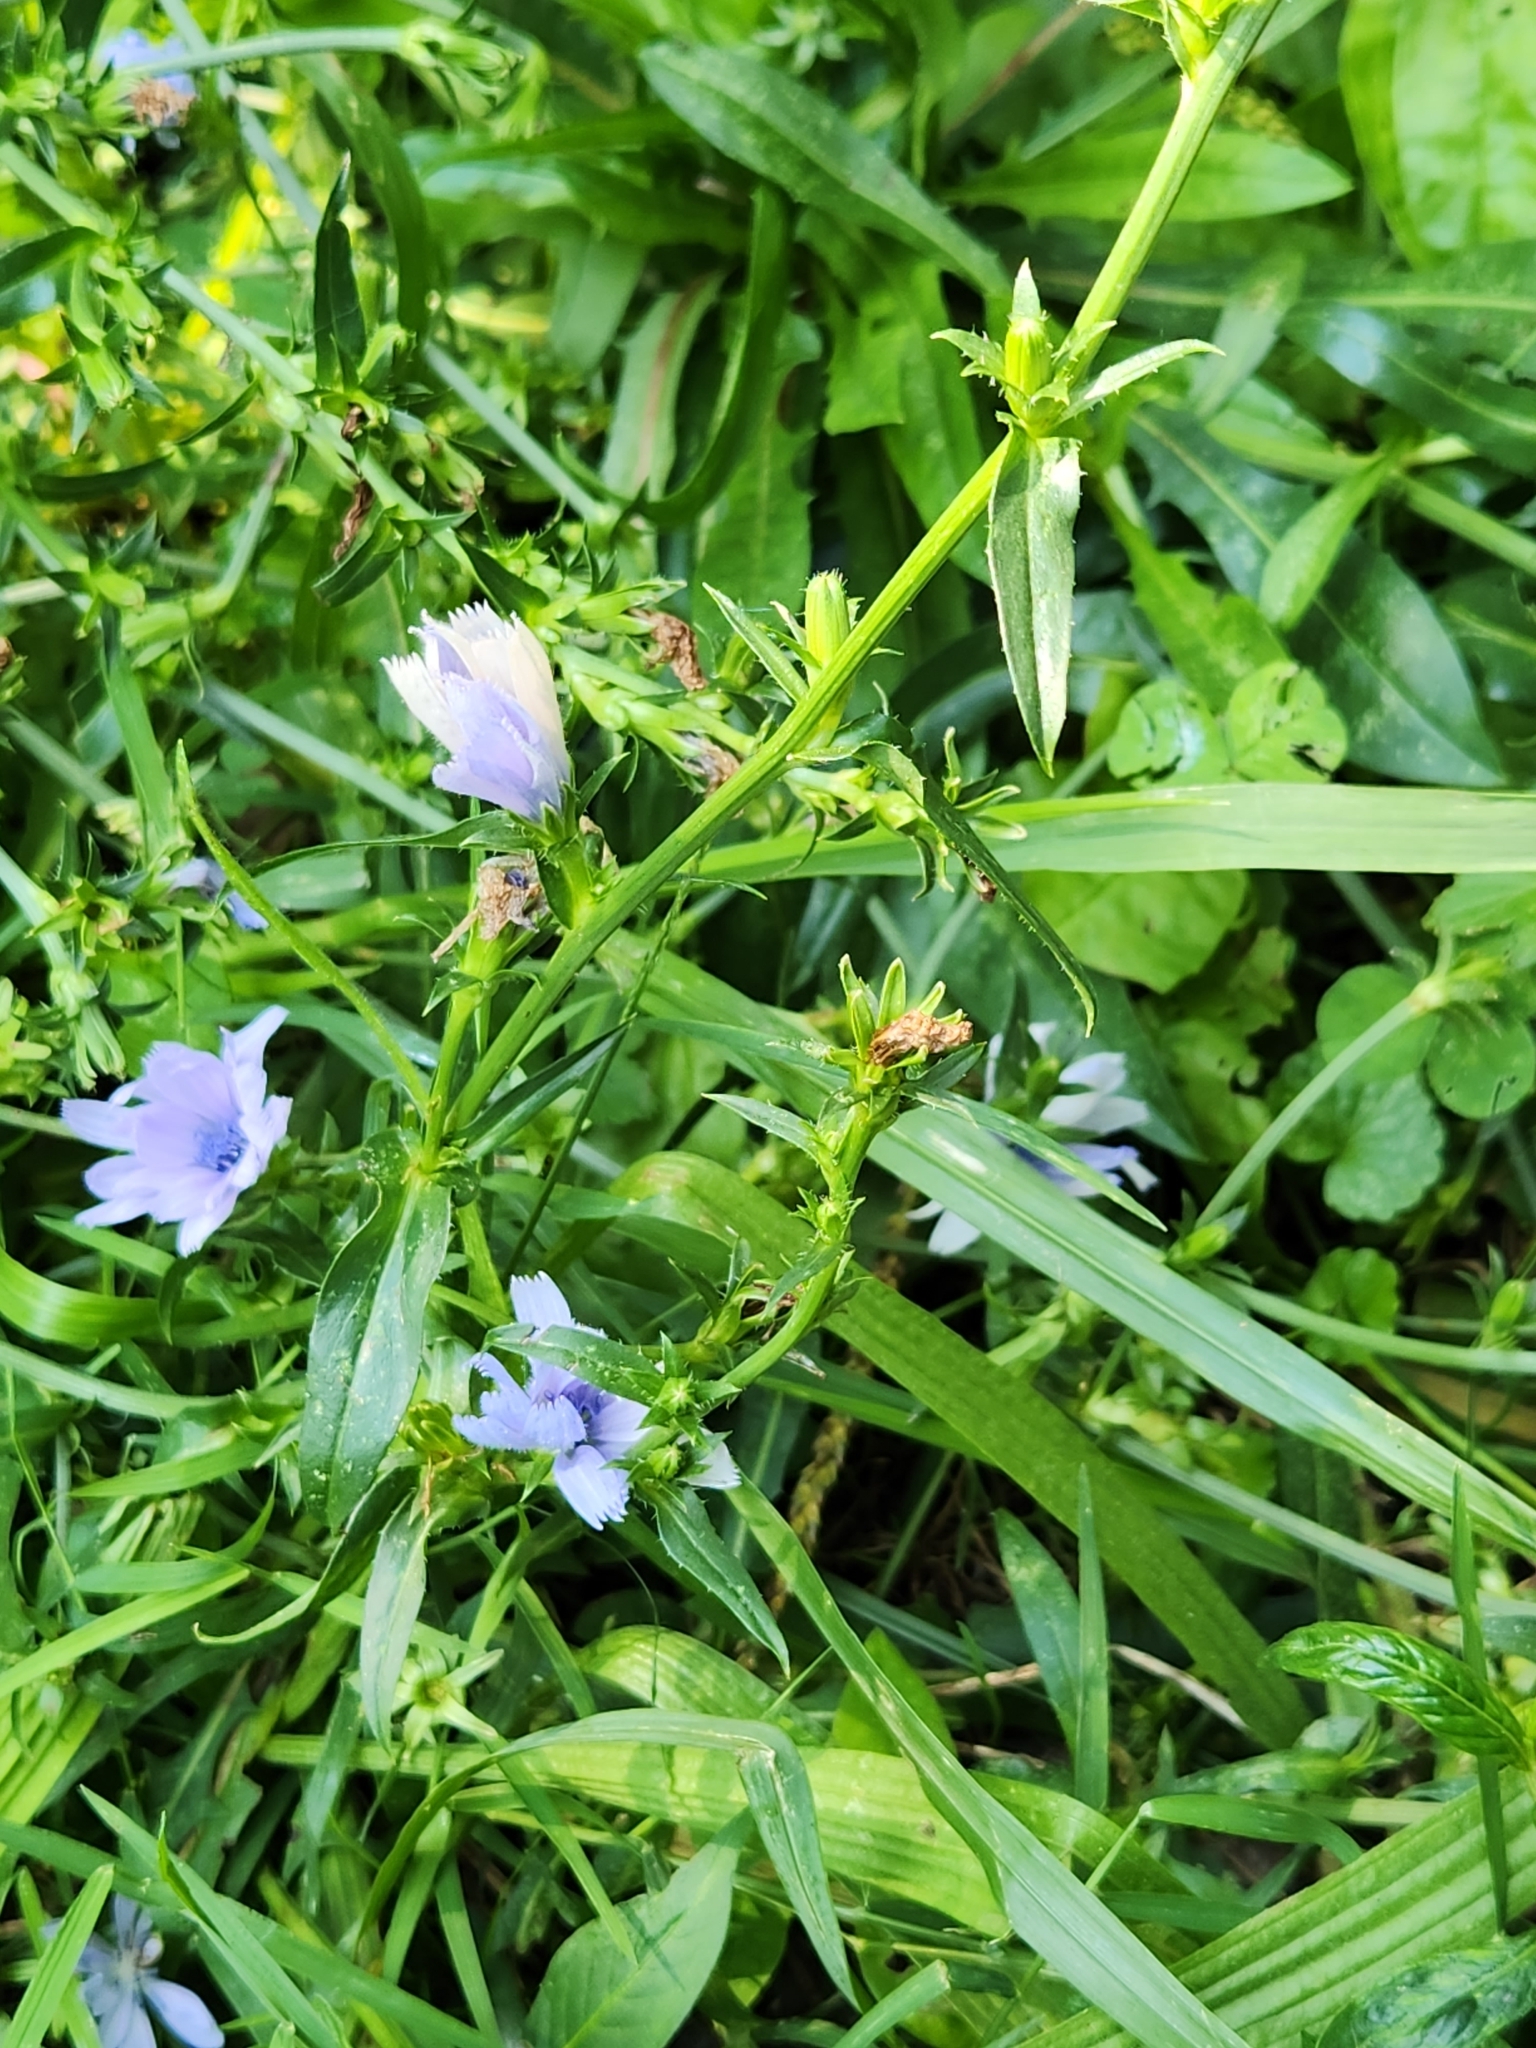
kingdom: Plantae
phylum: Tracheophyta
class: Magnoliopsida
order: Asterales
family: Asteraceae
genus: Cichorium
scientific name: Cichorium intybus
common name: Chicory
